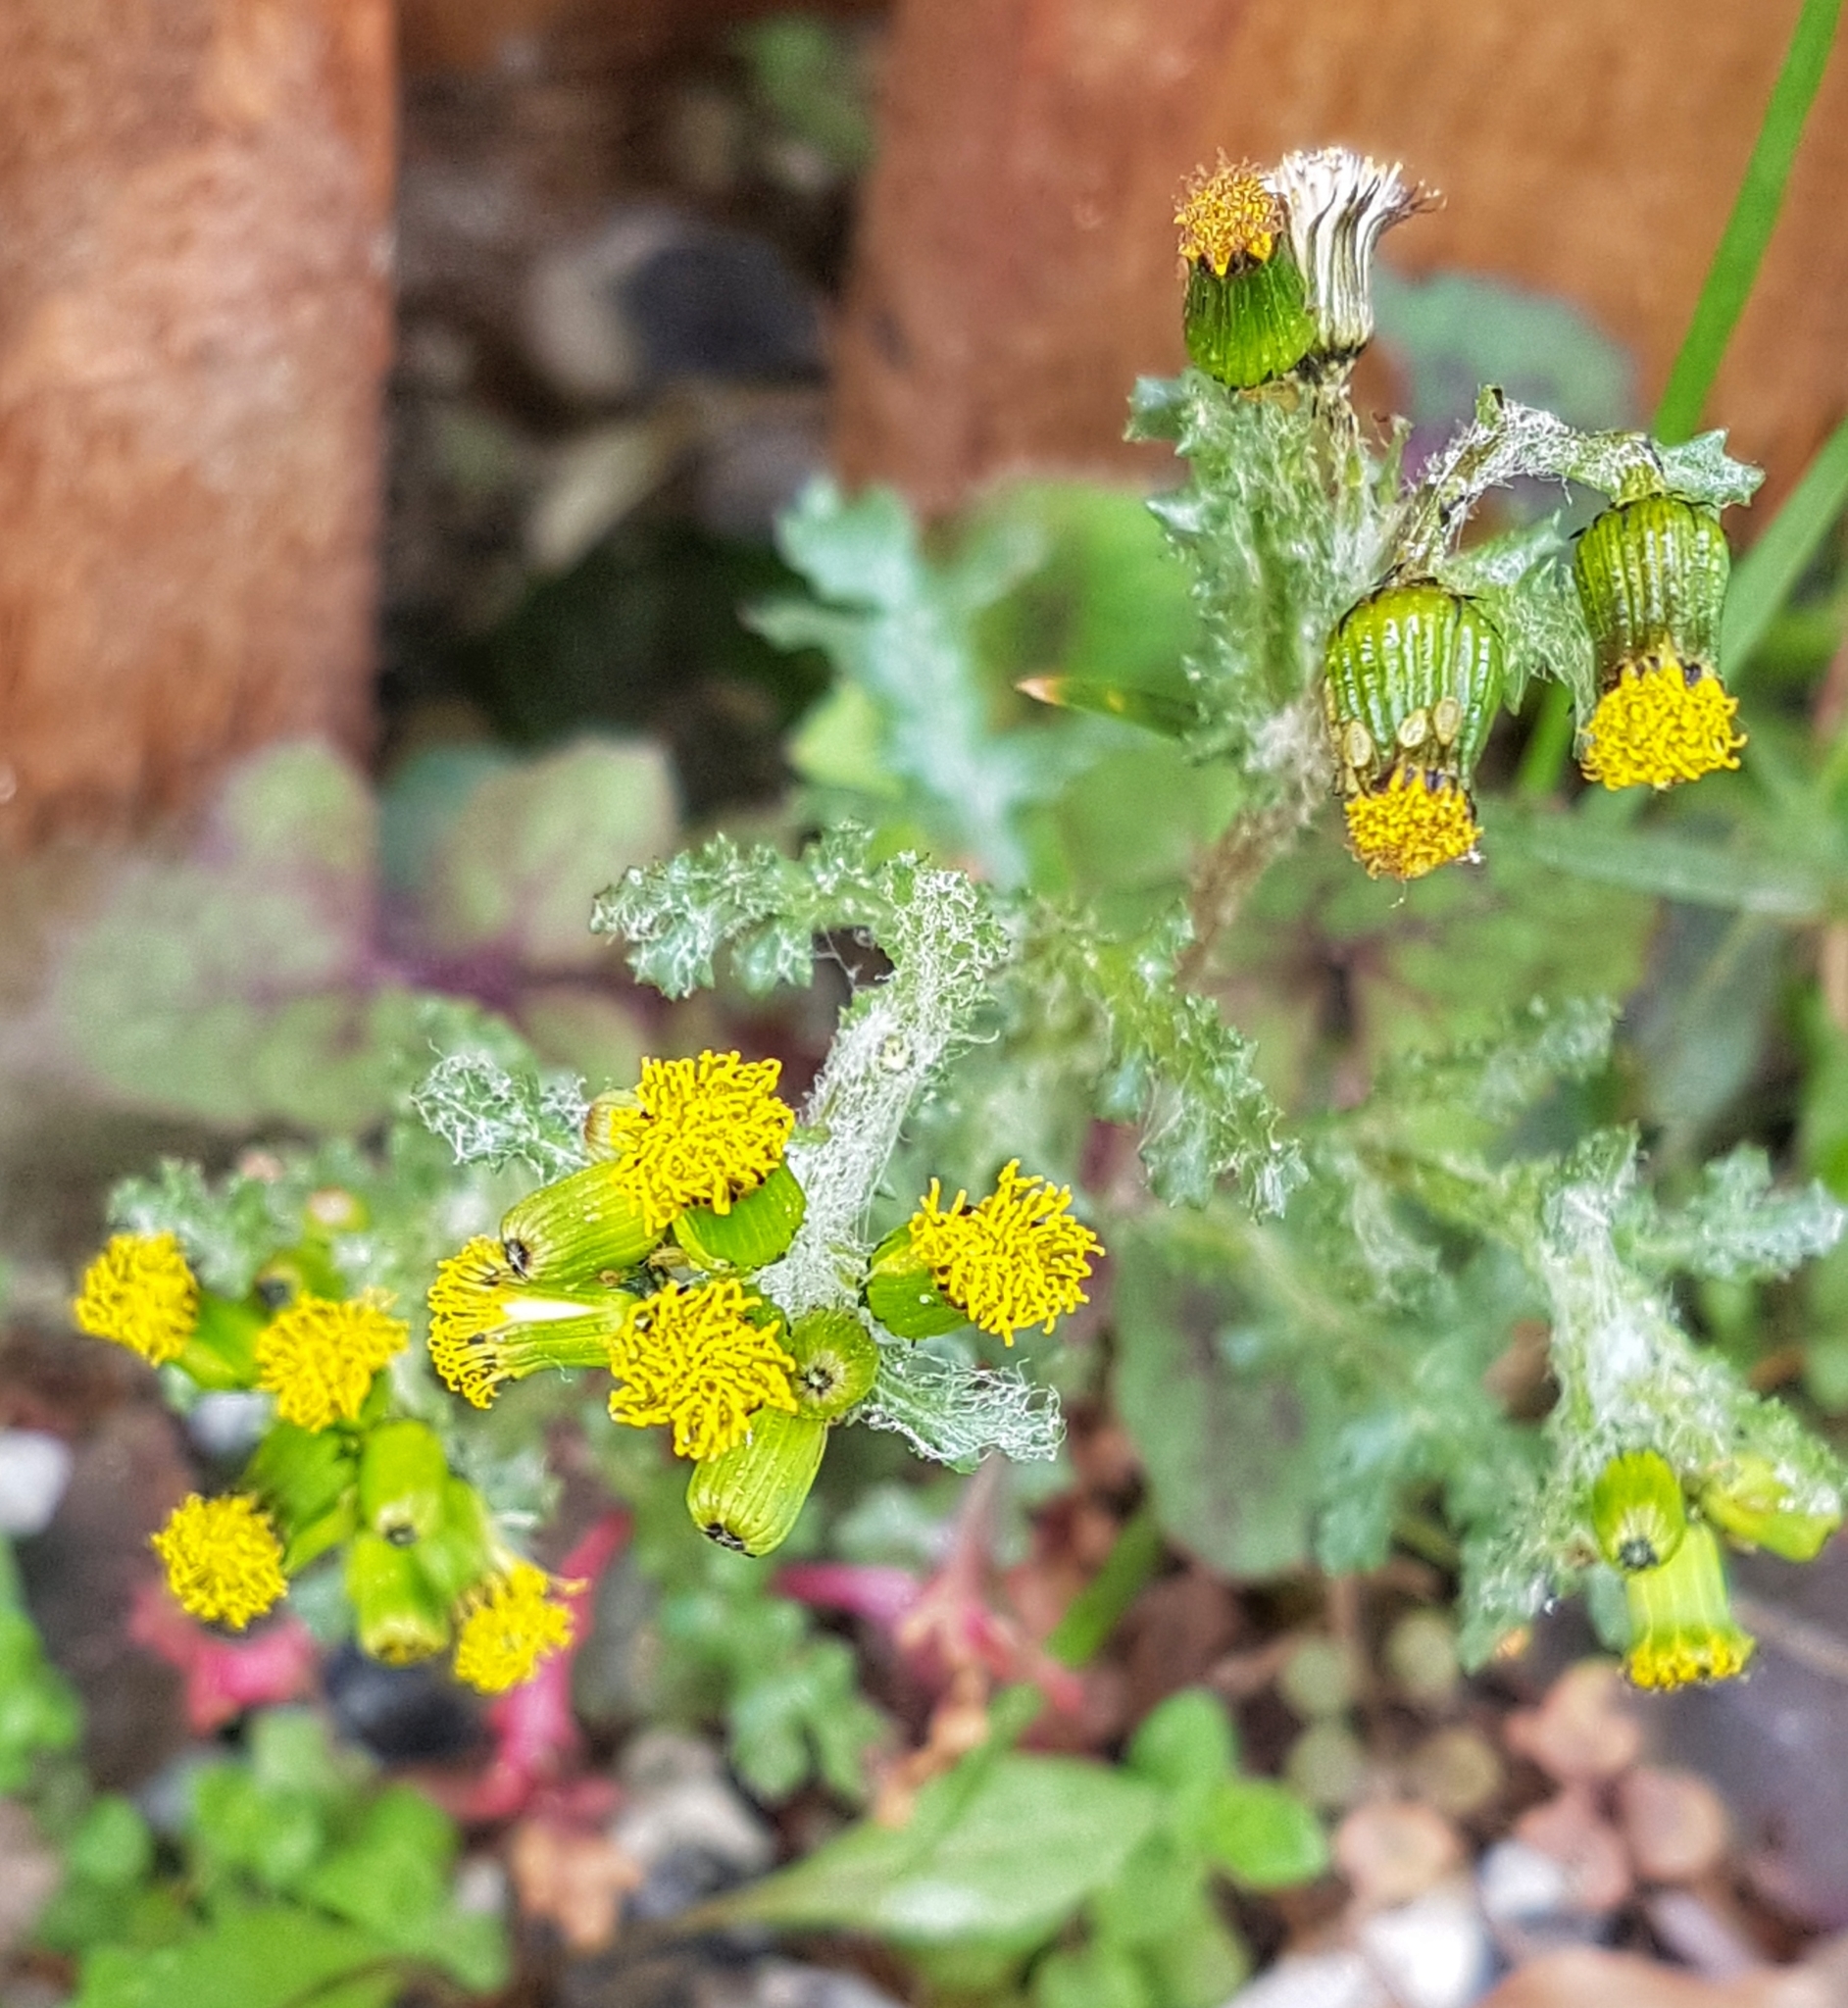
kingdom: Plantae
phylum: Tracheophyta
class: Magnoliopsida
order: Asterales
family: Asteraceae
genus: Senecio
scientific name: Senecio vulgaris
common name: Old-man-in-the-spring
